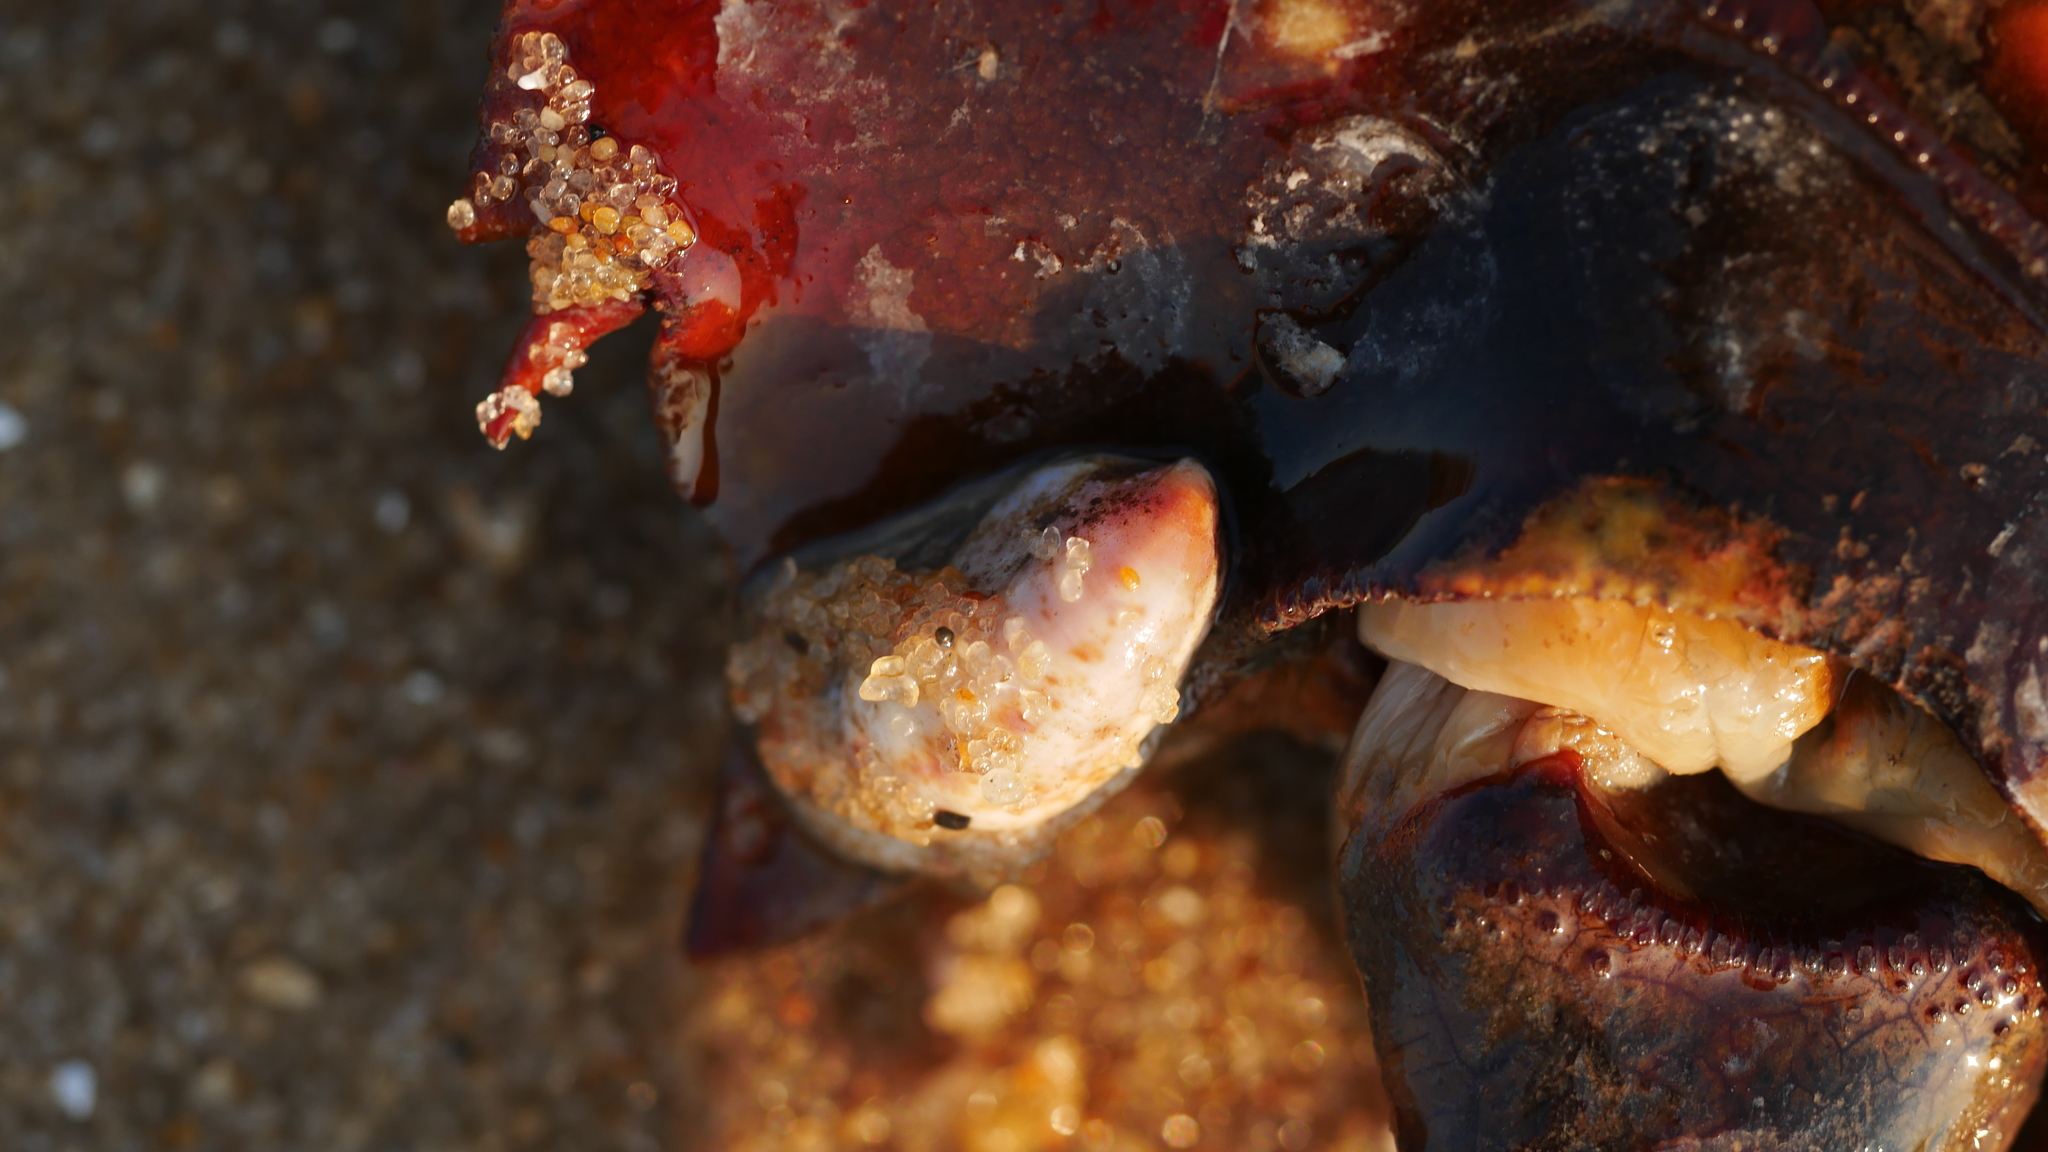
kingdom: Animalia
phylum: Mollusca
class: Gastropoda
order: Littorinimorpha
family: Calyptraeidae
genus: Crepidula
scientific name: Crepidula fornicata
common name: Slipper limpet
